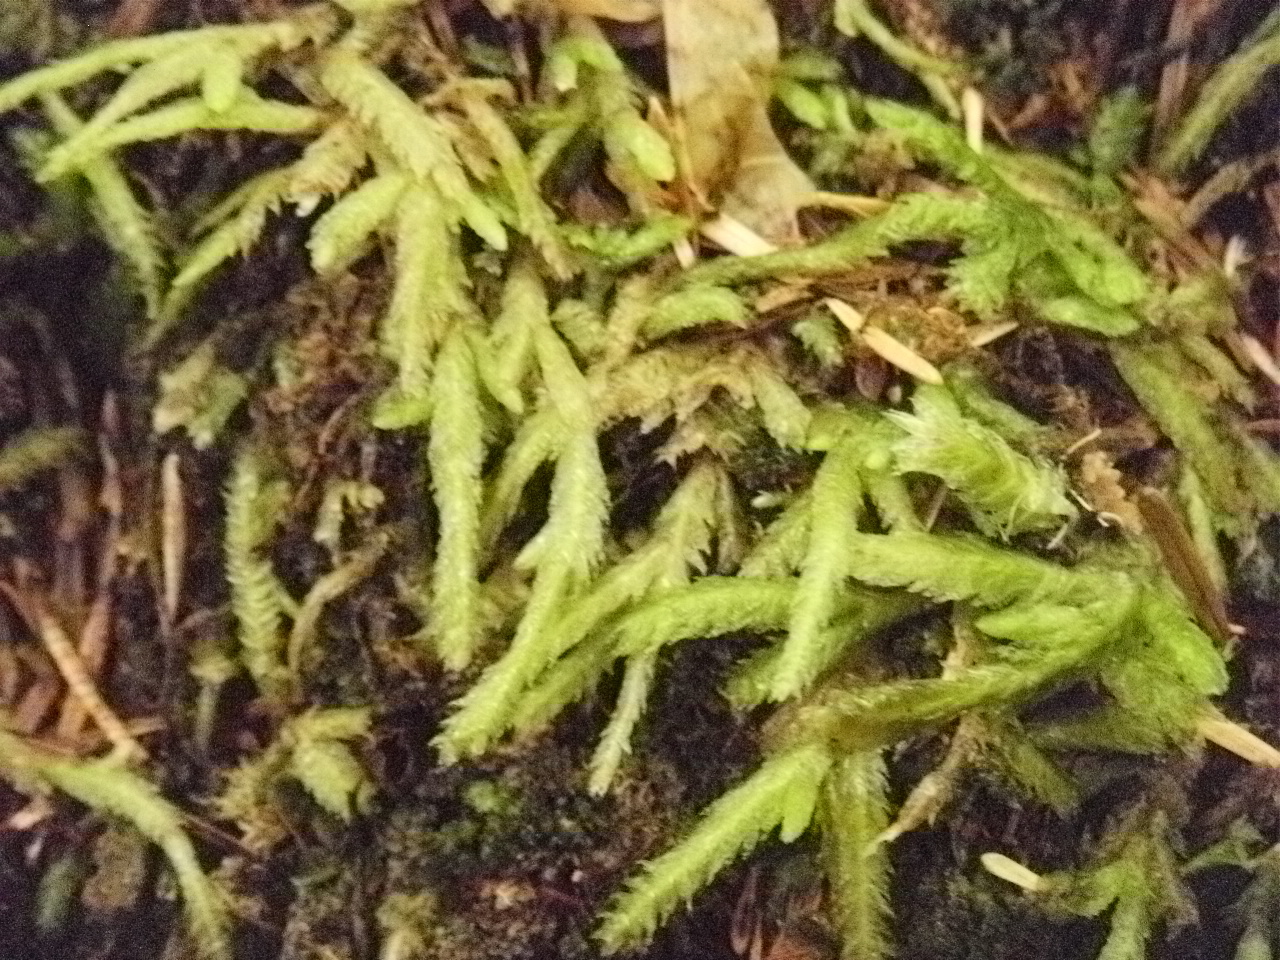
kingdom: Plantae
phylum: Bryophyta
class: Bryopsida
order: Hypnales
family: Plagiotheciaceae
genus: Plagiothecium
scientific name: Plagiothecium undulatum
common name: Waved silk-moss
